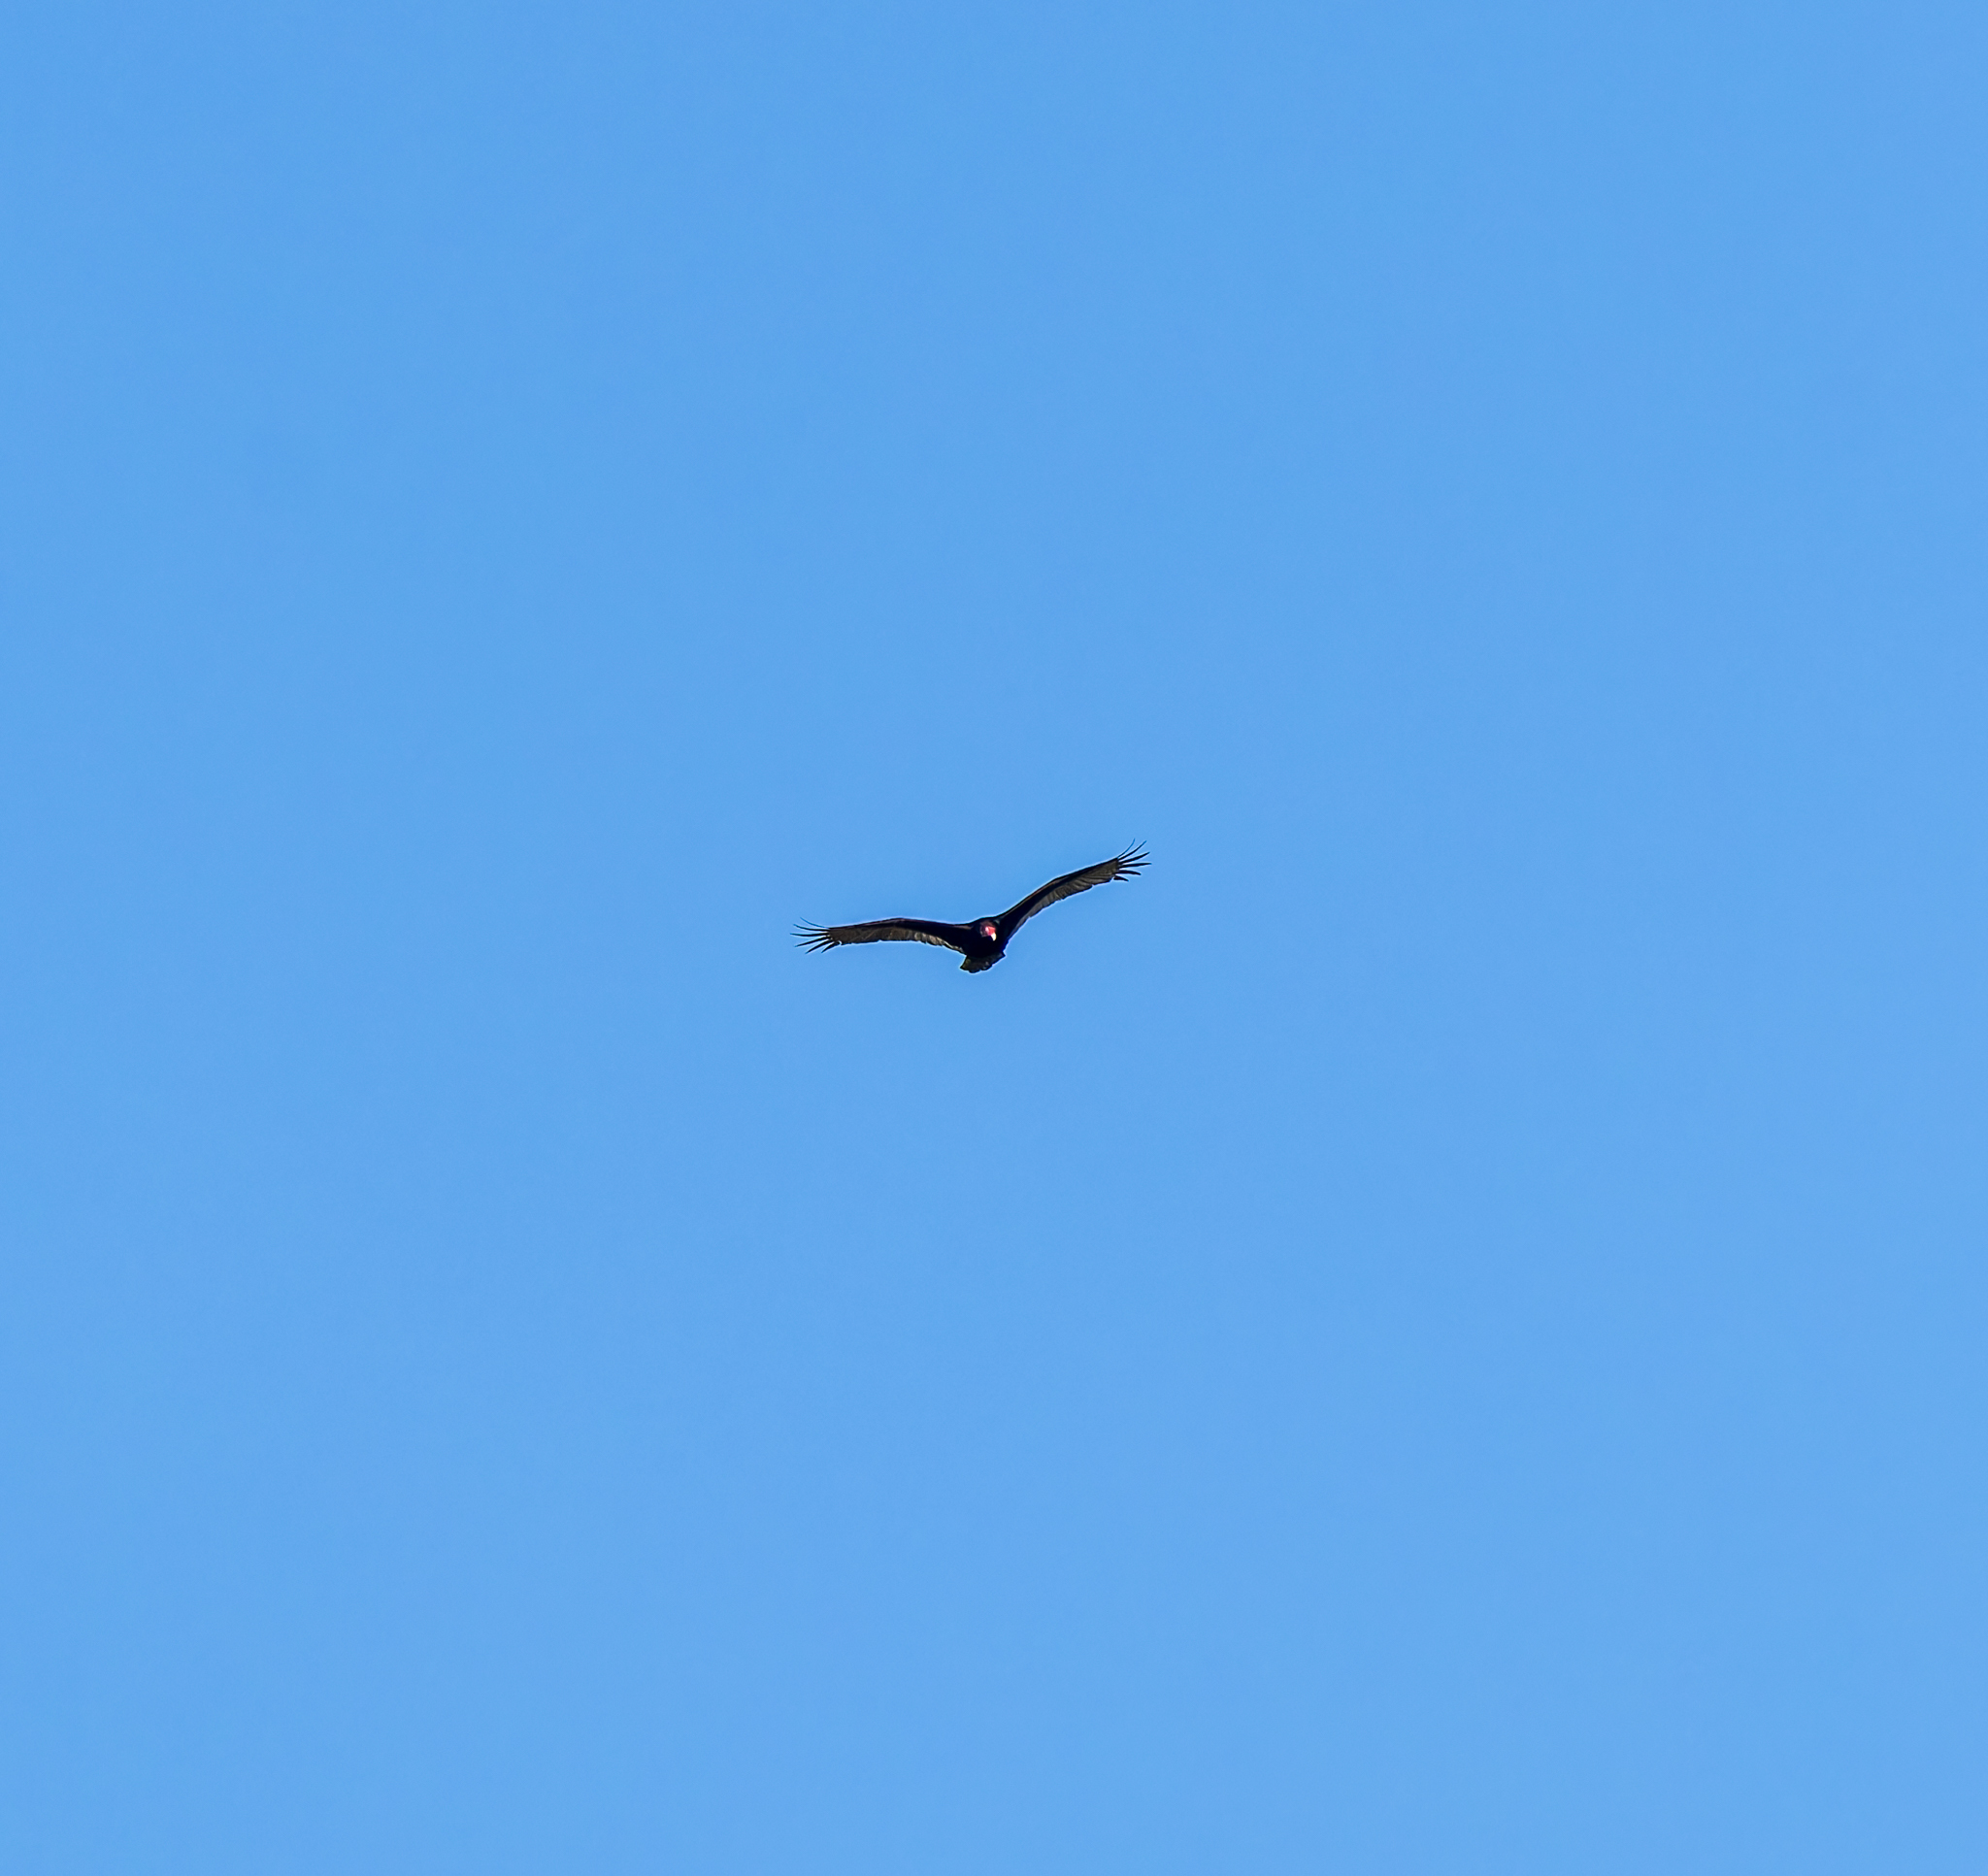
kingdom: Animalia
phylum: Chordata
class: Aves
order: Accipitriformes
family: Cathartidae
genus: Cathartes
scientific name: Cathartes aura
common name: Turkey vulture
